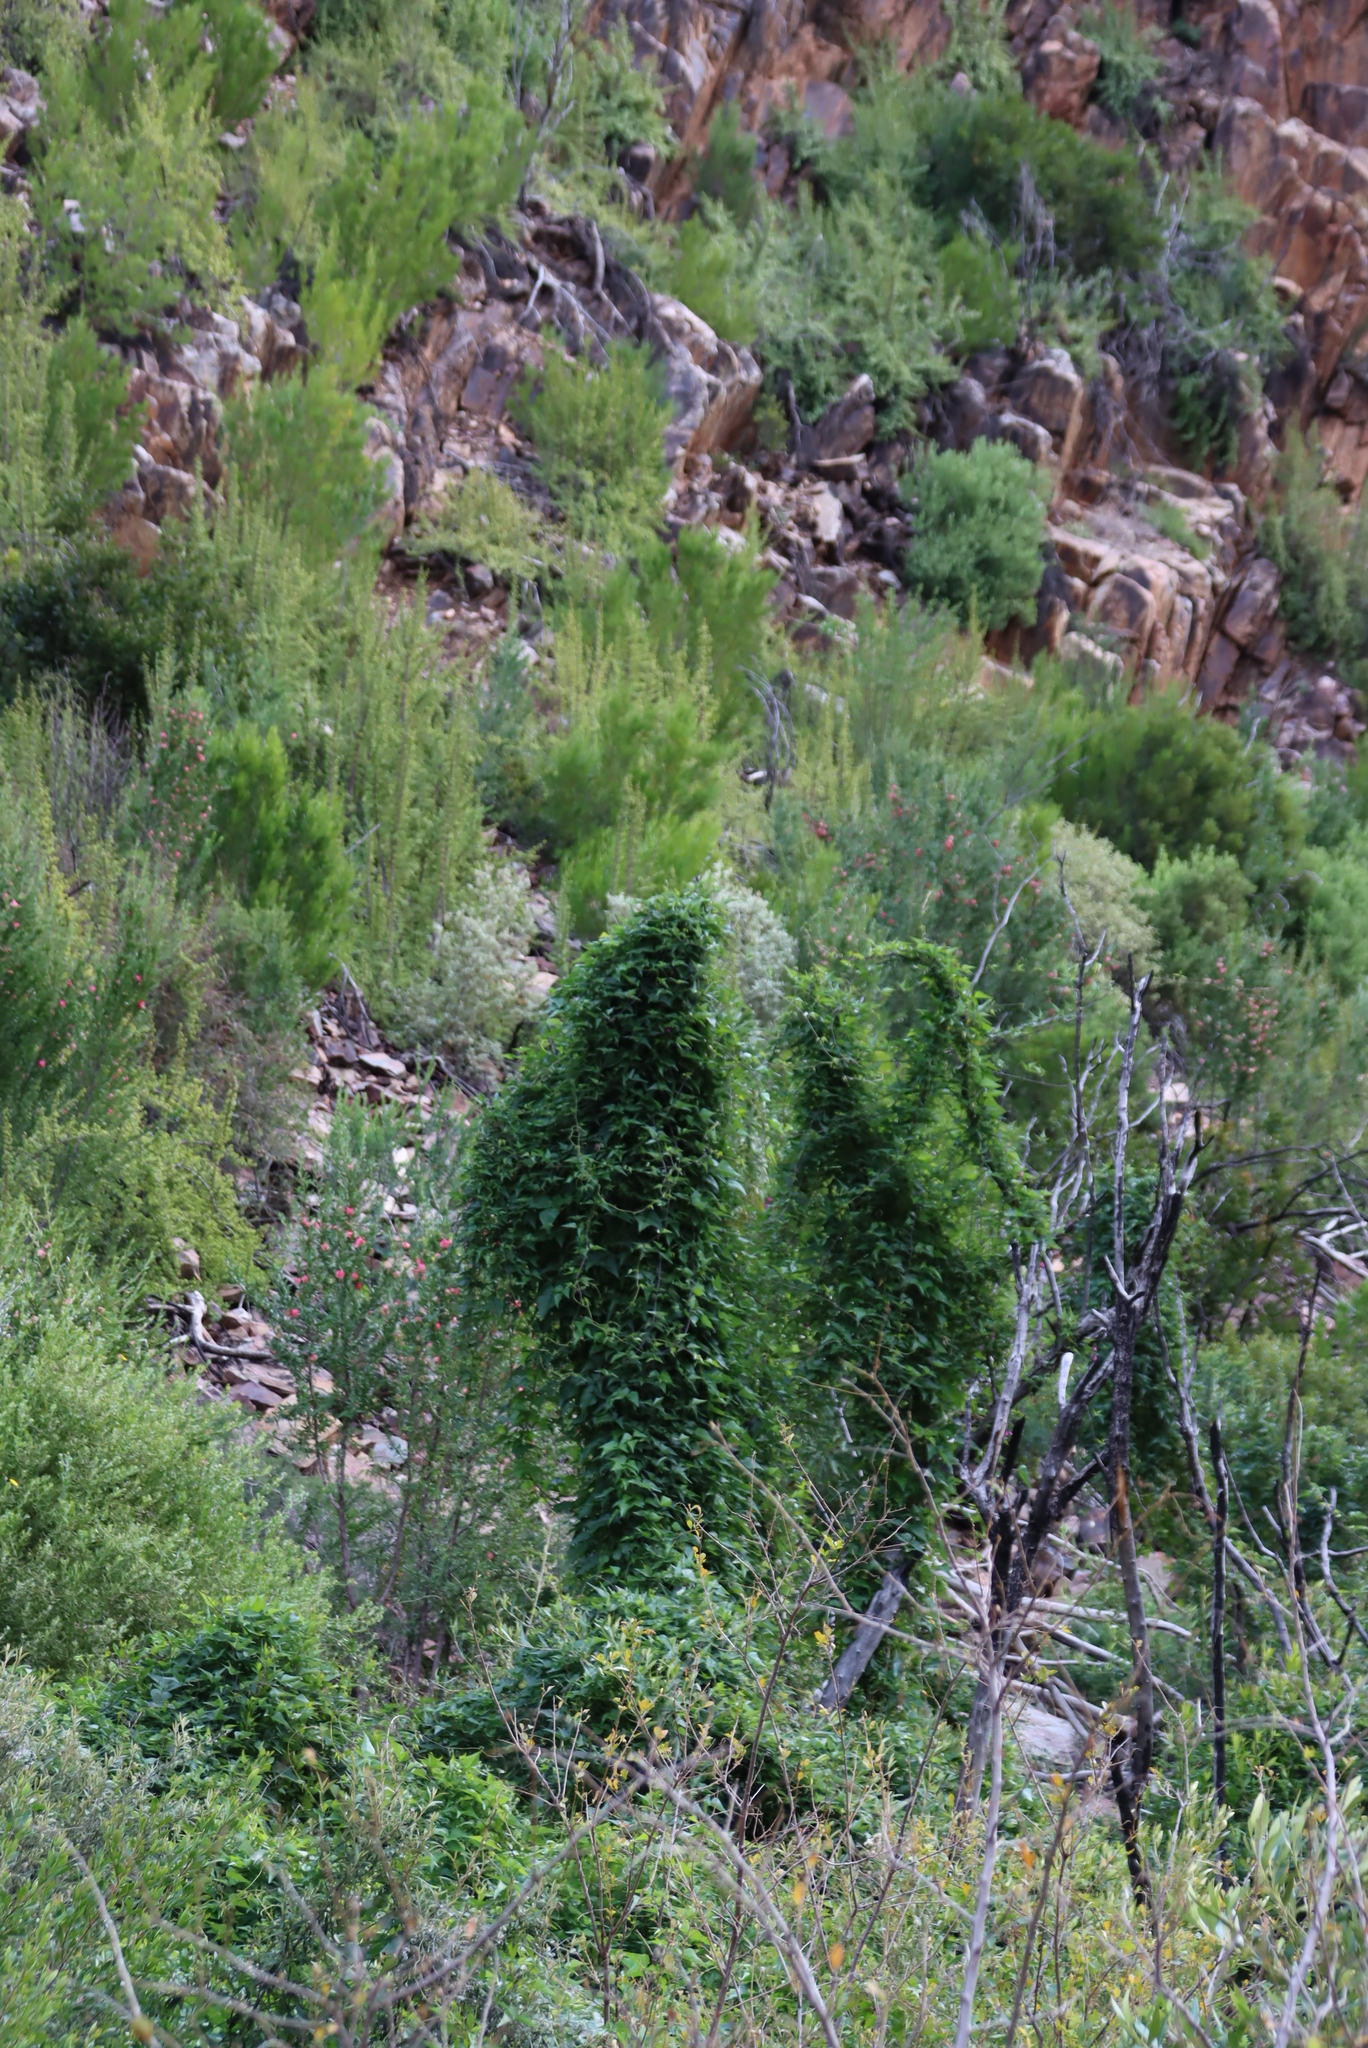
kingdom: Plantae
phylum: Tracheophyta
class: Magnoliopsida
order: Fabales
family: Fabaceae
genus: Dipogon
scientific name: Dipogon lignosus
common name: Okie bean
